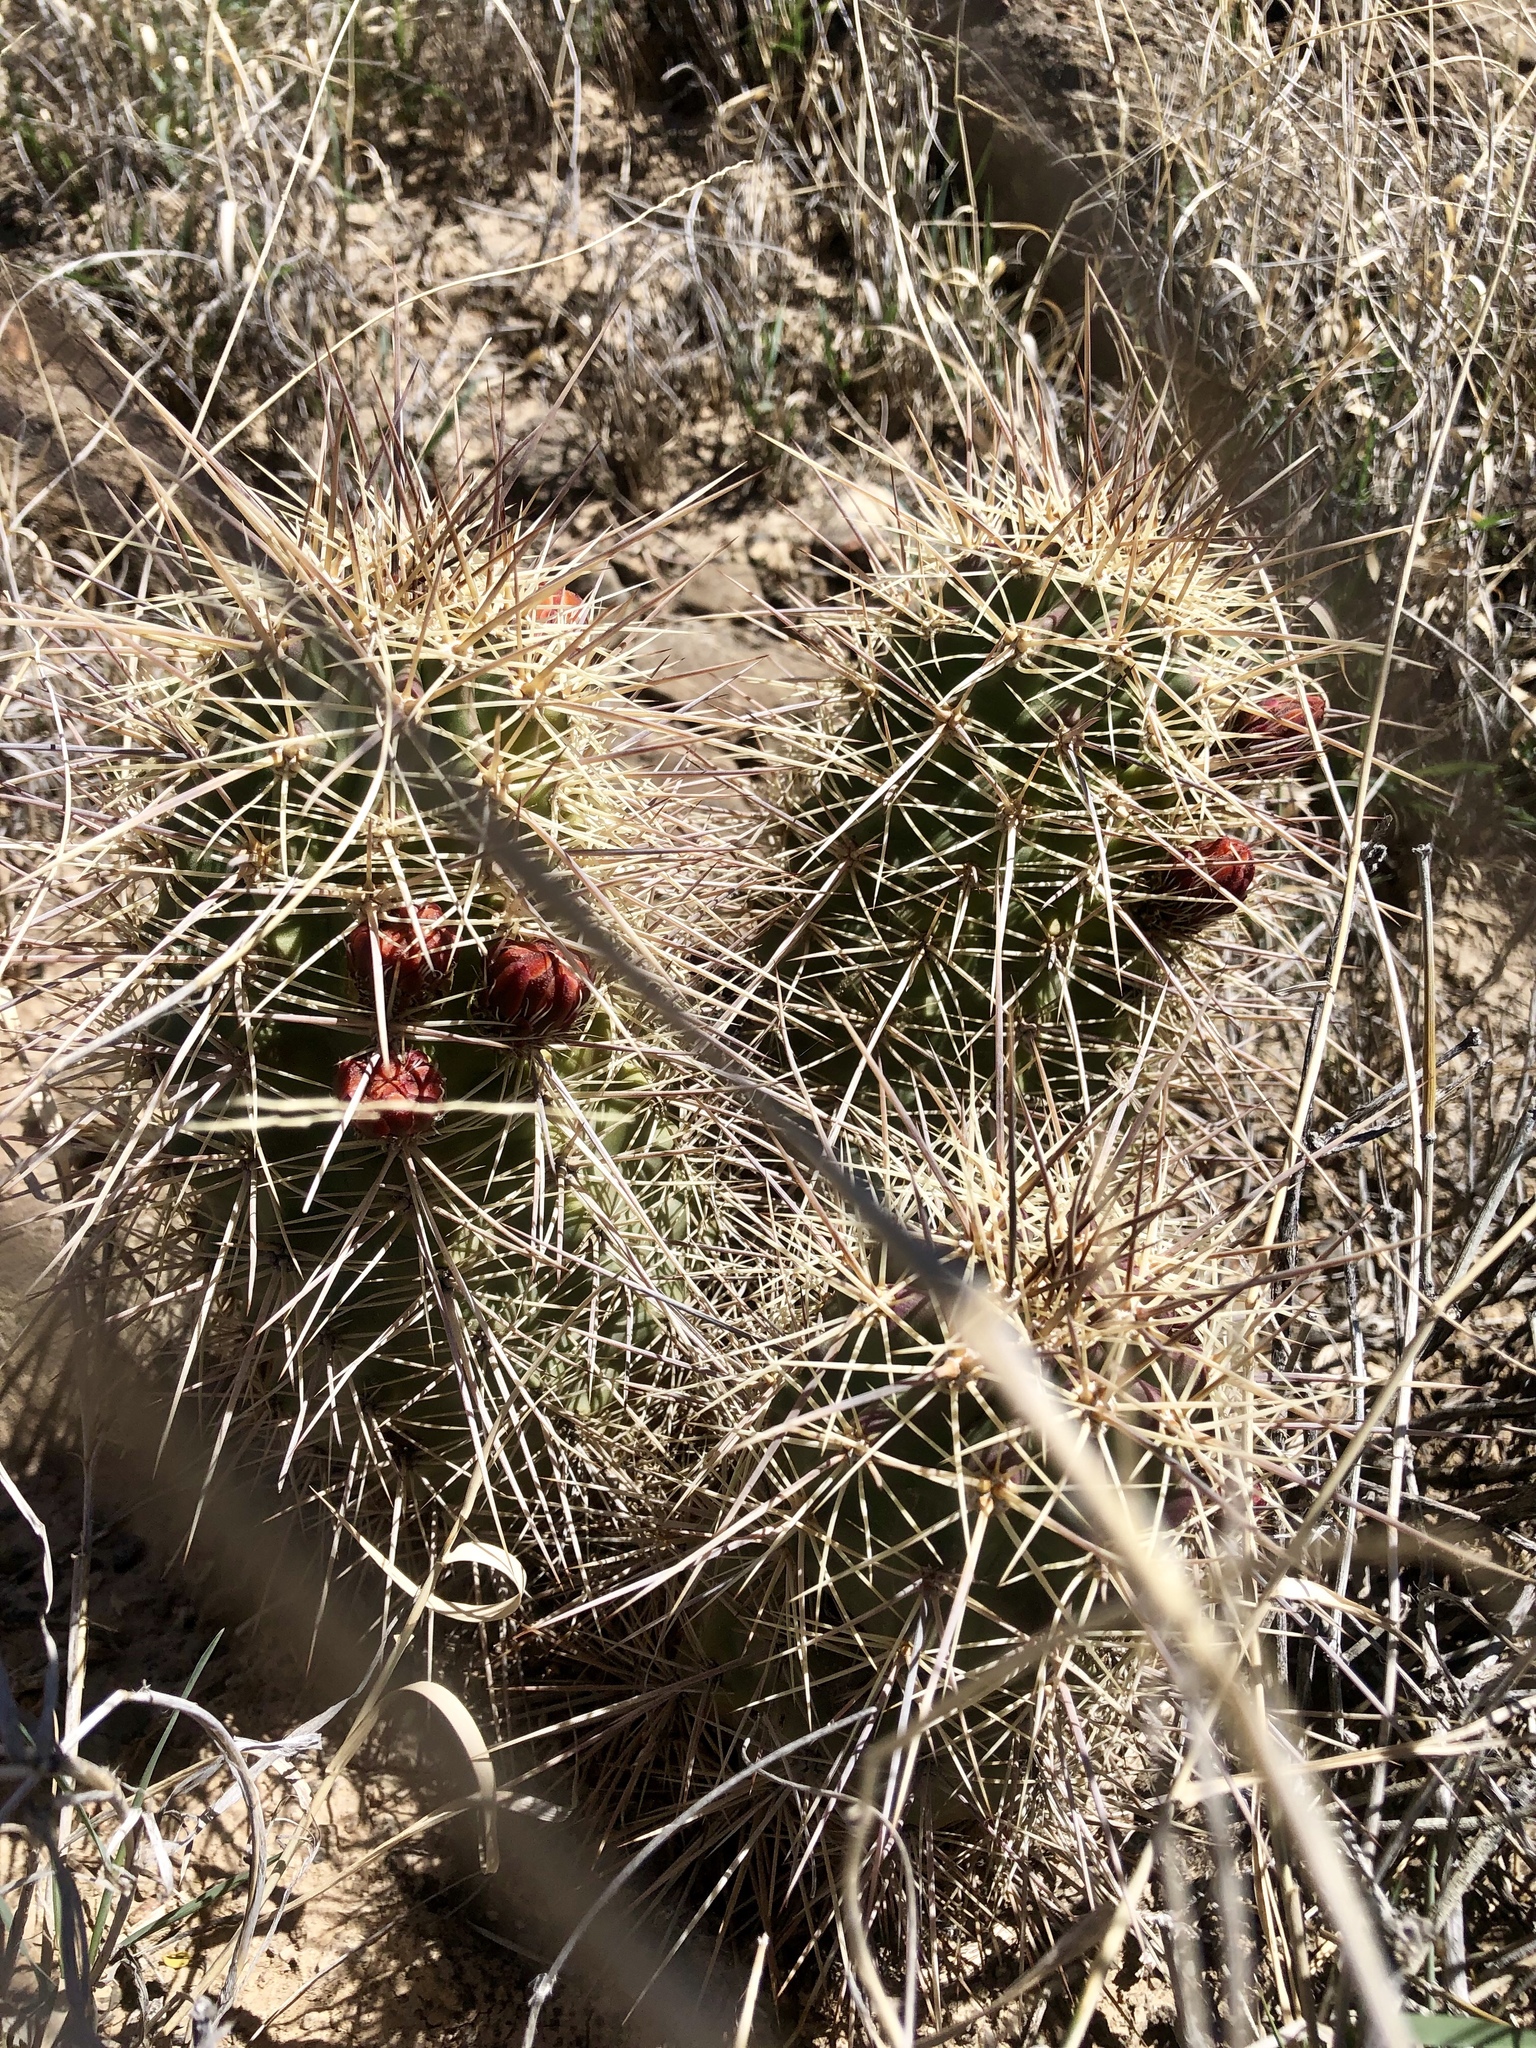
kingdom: Plantae
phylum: Tracheophyta
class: Magnoliopsida
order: Caryophyllales
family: Cactaceae
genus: Echinocereus
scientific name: Echinocereus coccineus
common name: Scarlet hedgehog cactus
